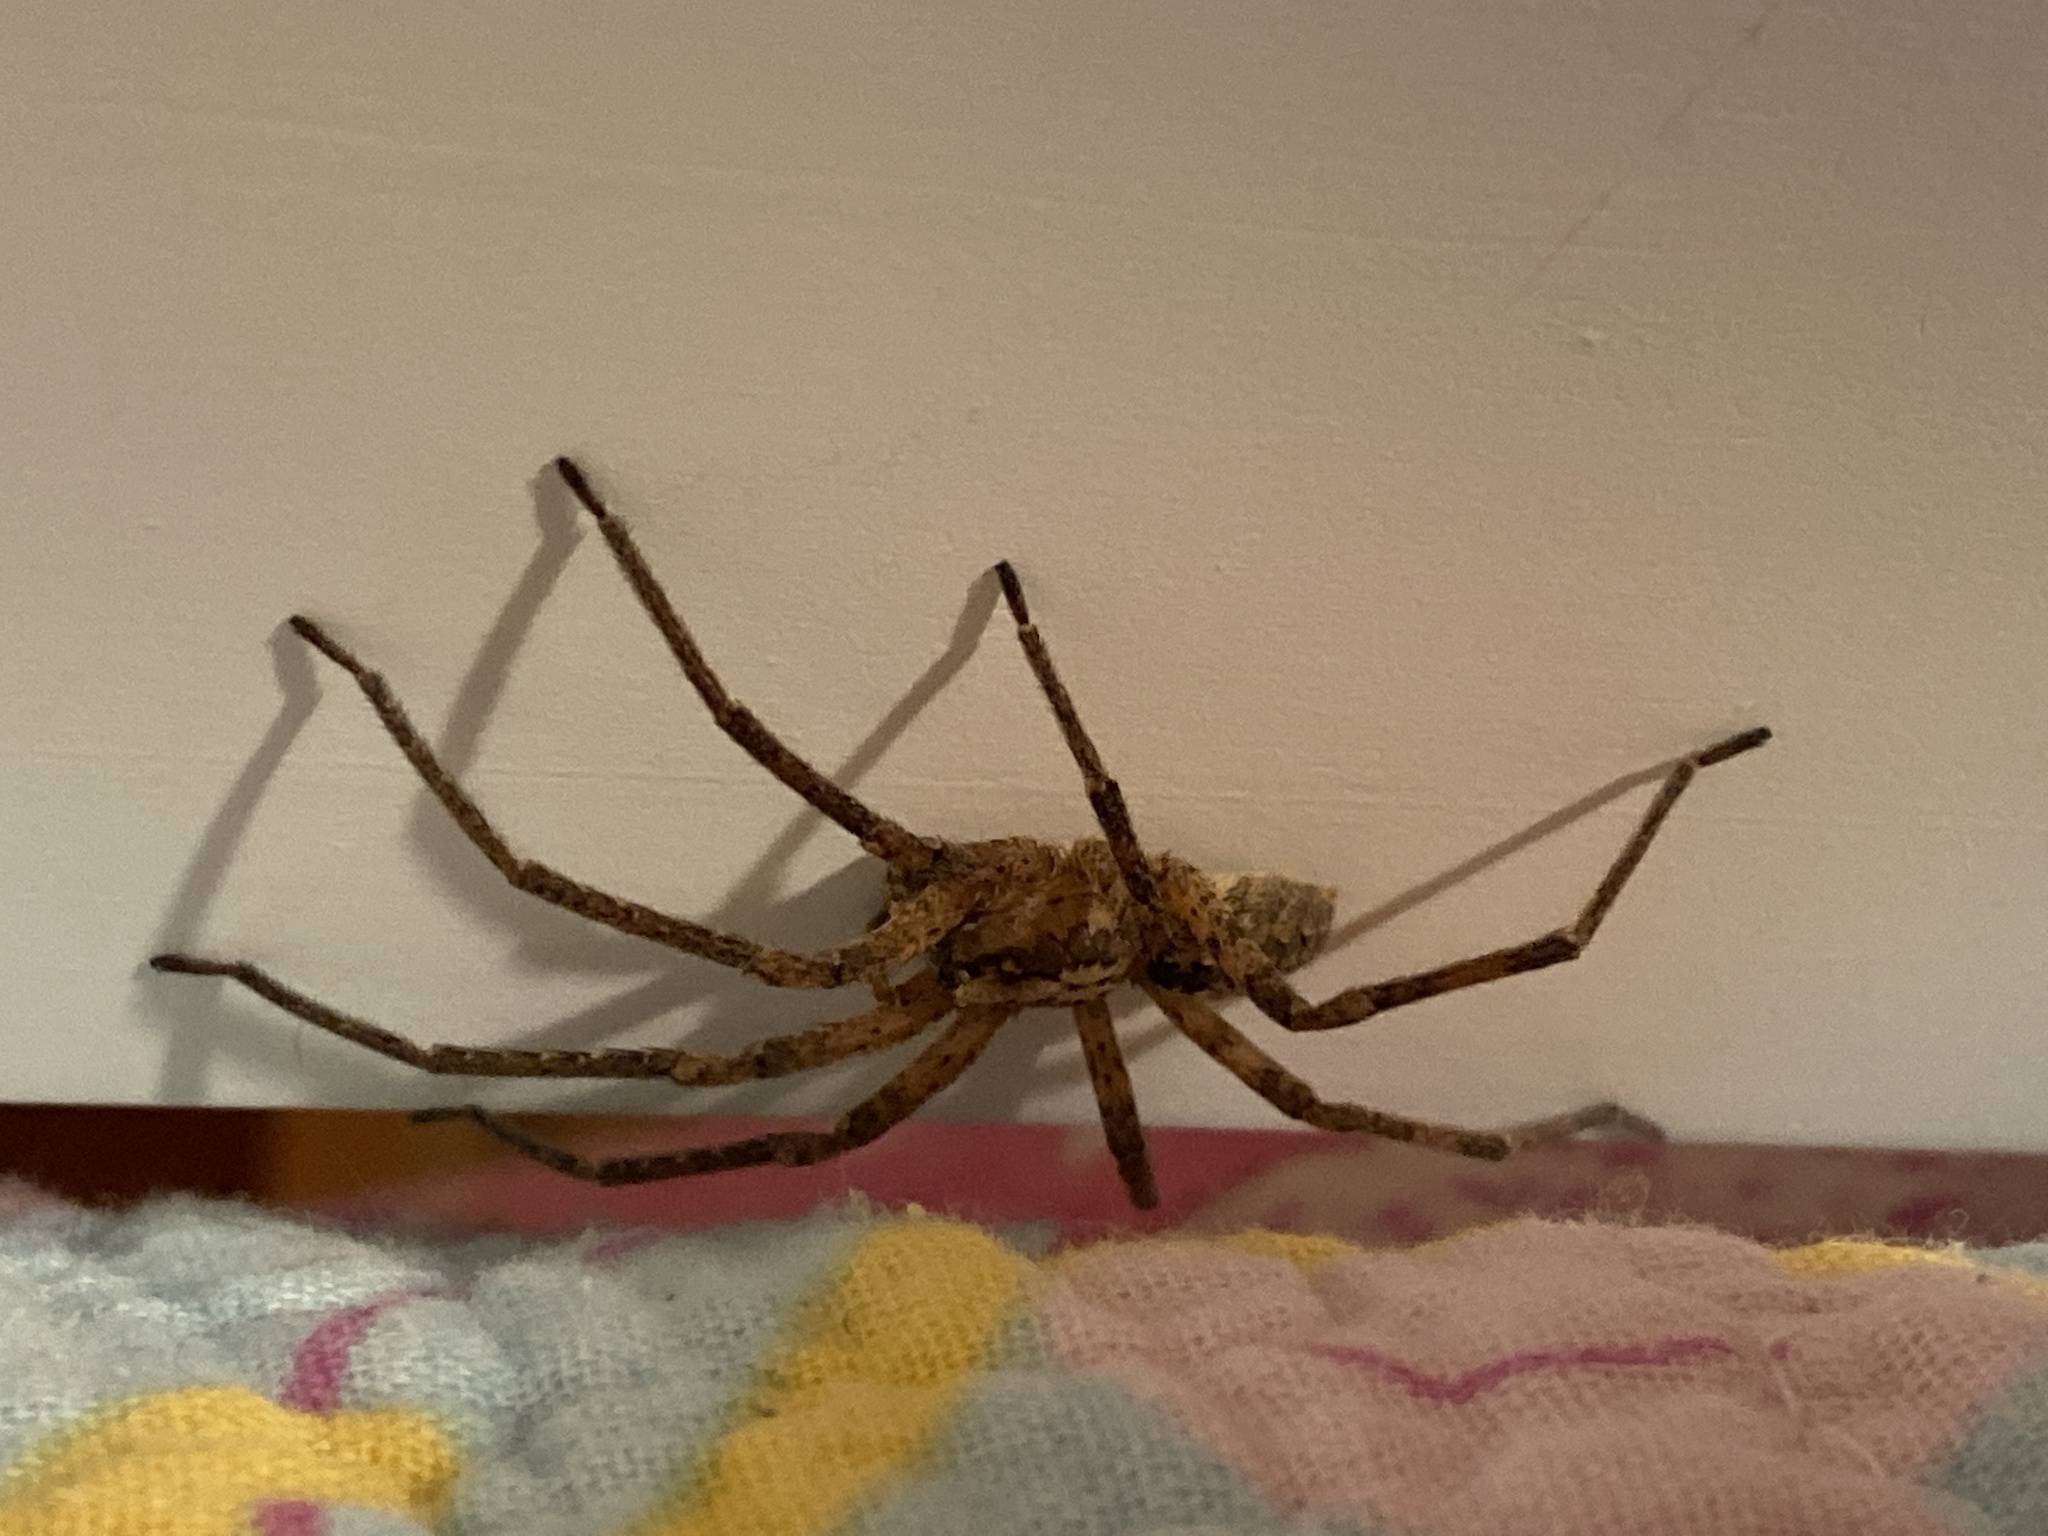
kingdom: Animalia
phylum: Arthropoda
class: Arachnida
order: Araneae
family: Zoropsidae
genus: Zoropsis
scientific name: Zoropsis spinimana
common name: Zoropsid spider
